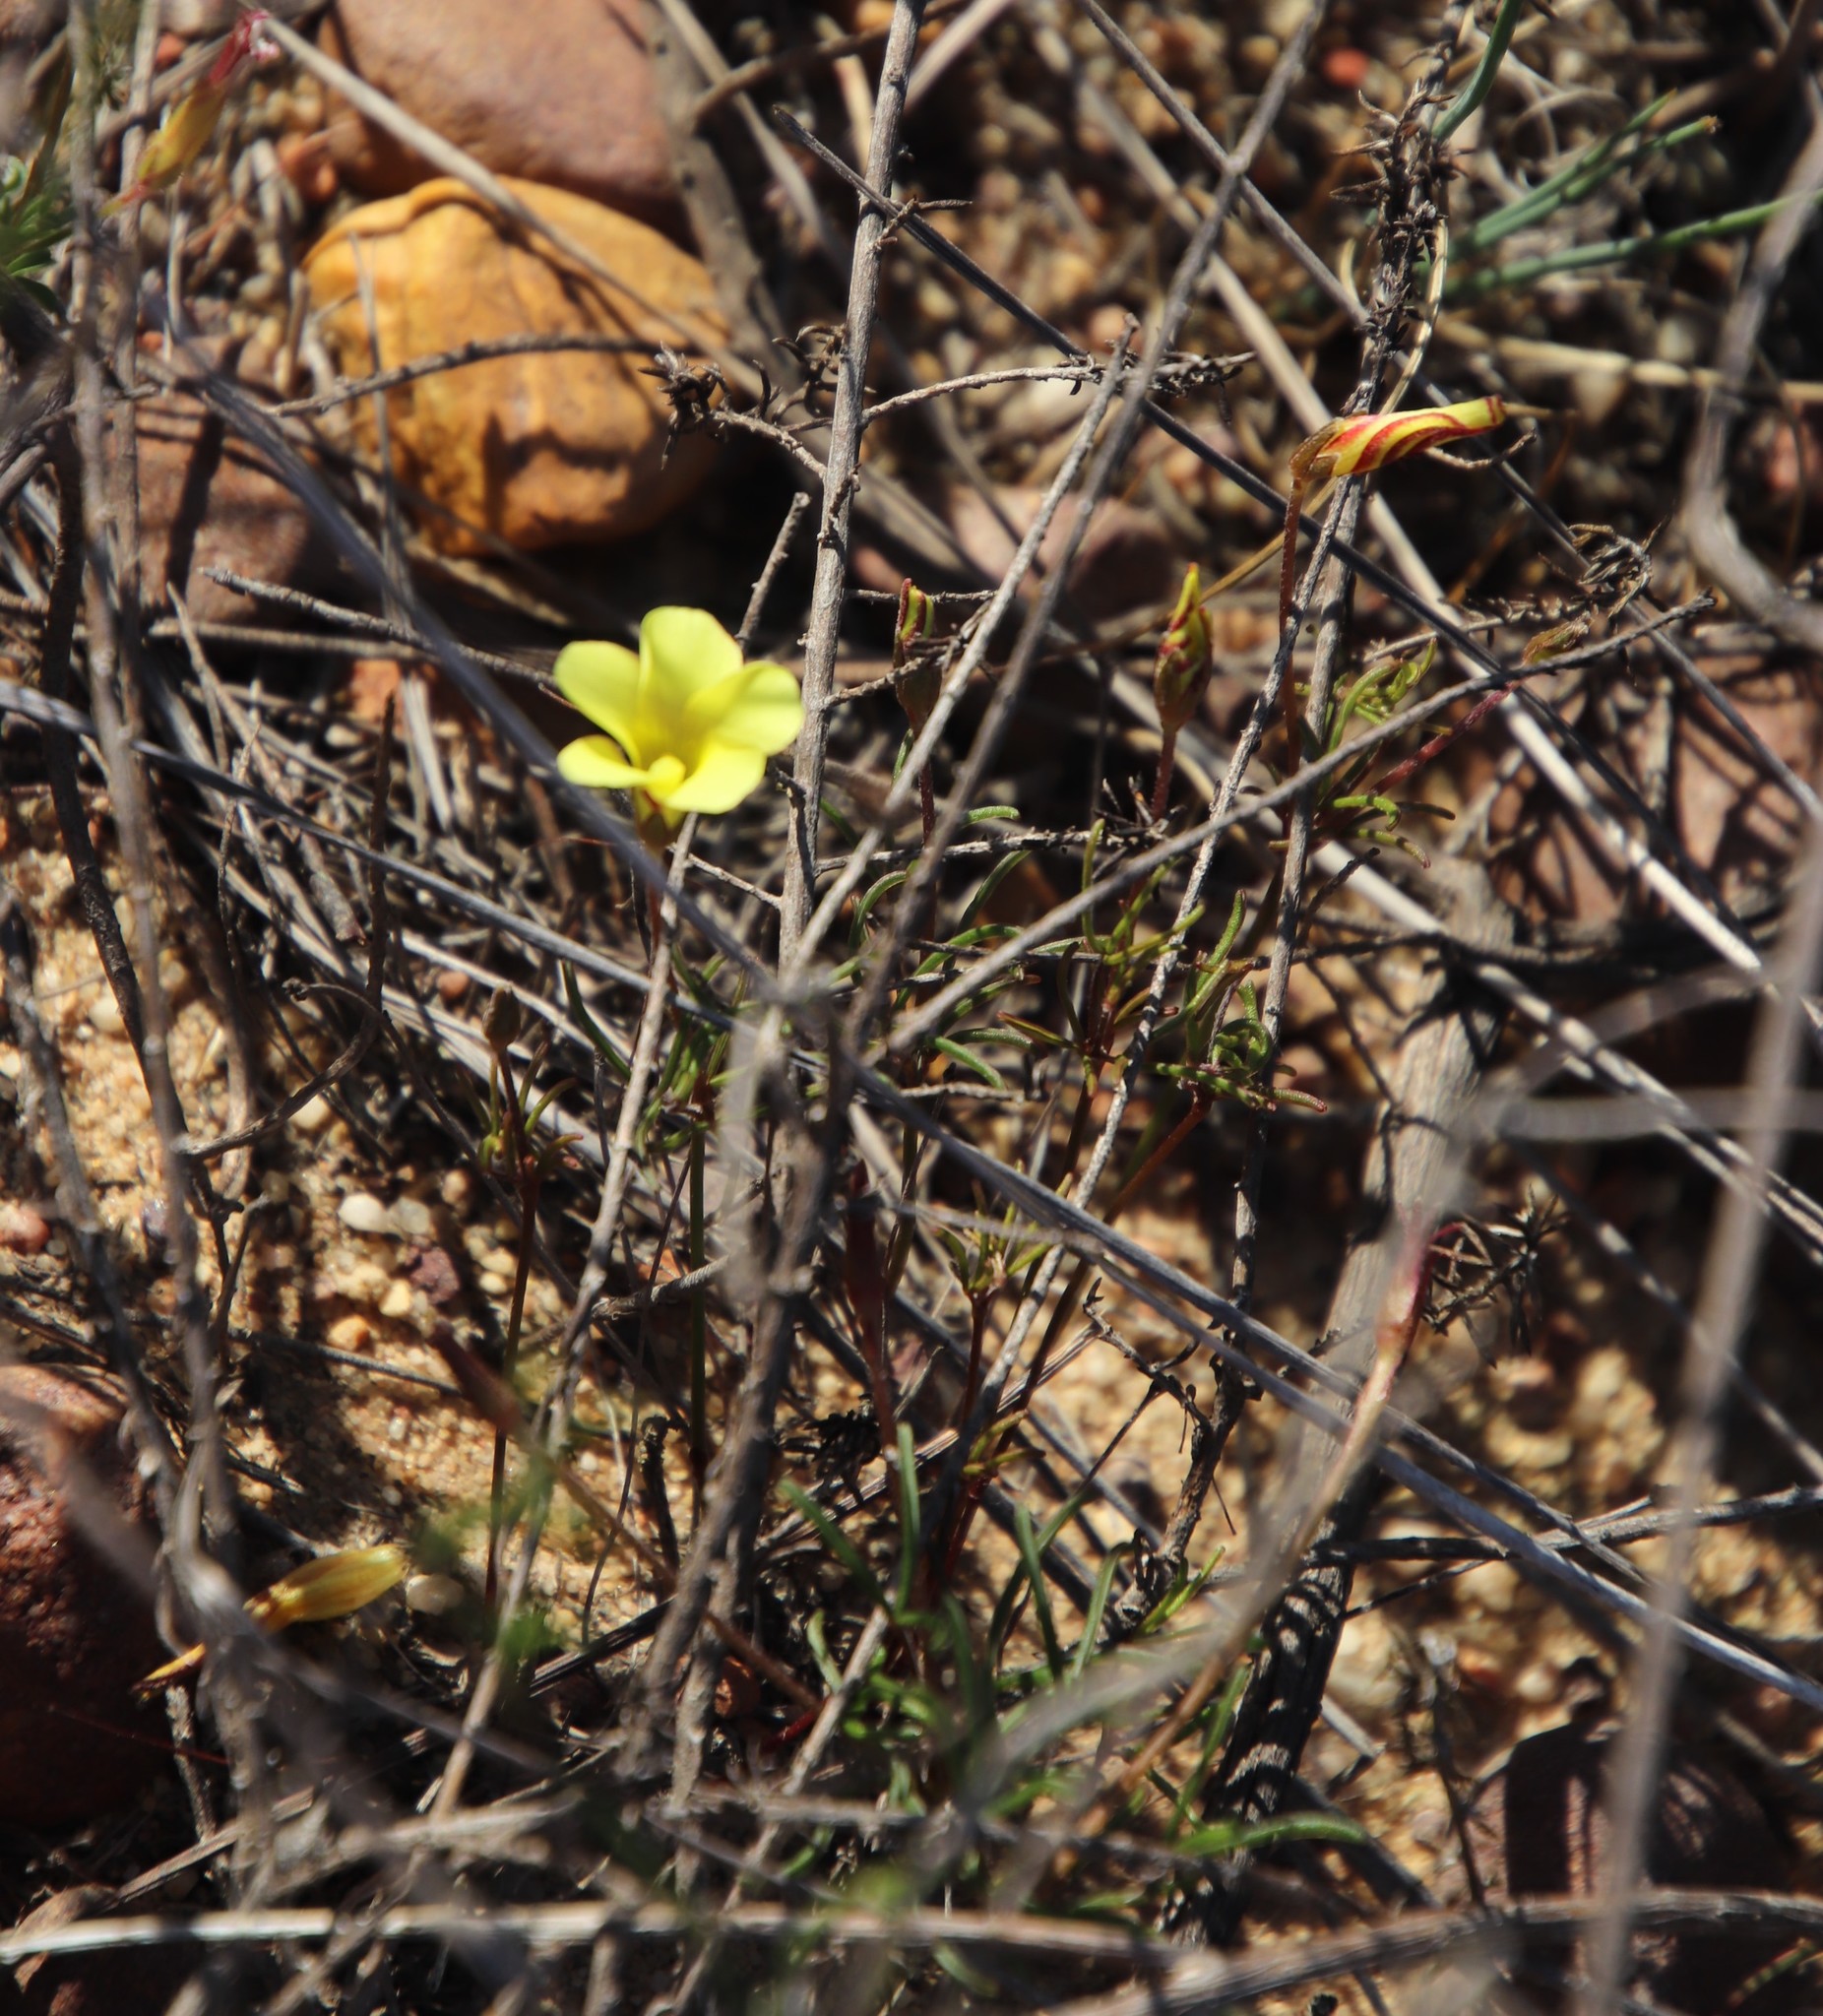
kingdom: Plantae
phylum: Tracheophyta
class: Magnoliopsida
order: Oxalidales
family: Oxalidaceae
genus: Oxalis
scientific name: Oxalis versicolor
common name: Peppermint rock oxalis
